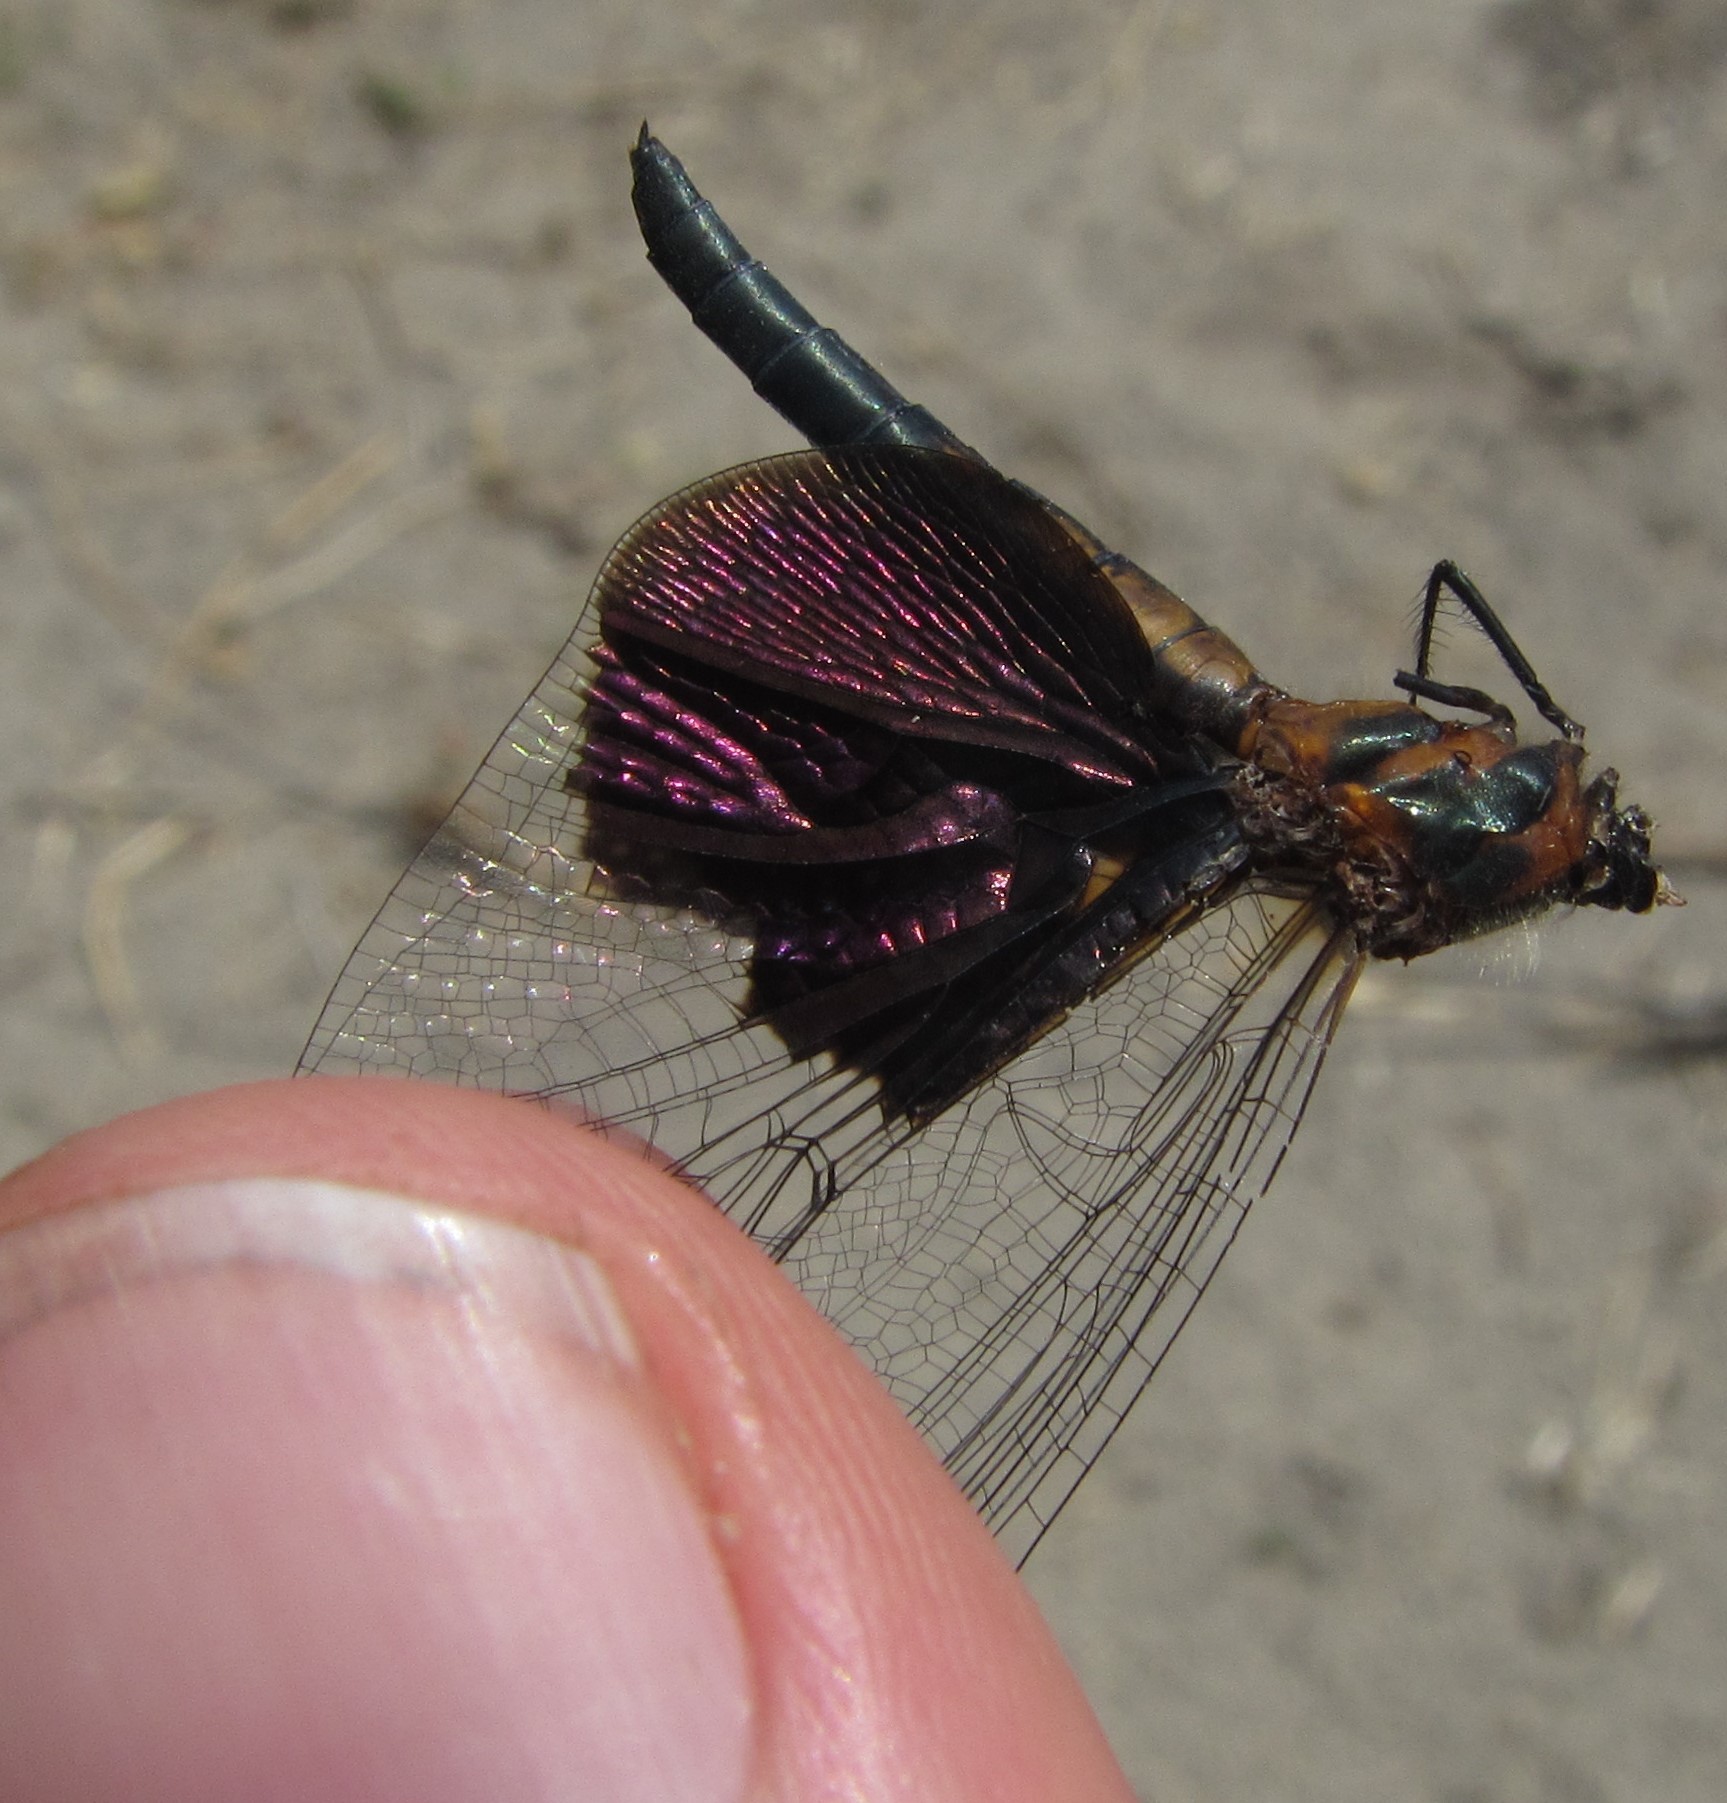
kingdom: Animalia
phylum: Arthropoda
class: Insecta
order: Odonata
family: Libellulidae
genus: Rhyothemis
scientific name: Rhyothemis semihyalina
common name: Phantom flutterer
